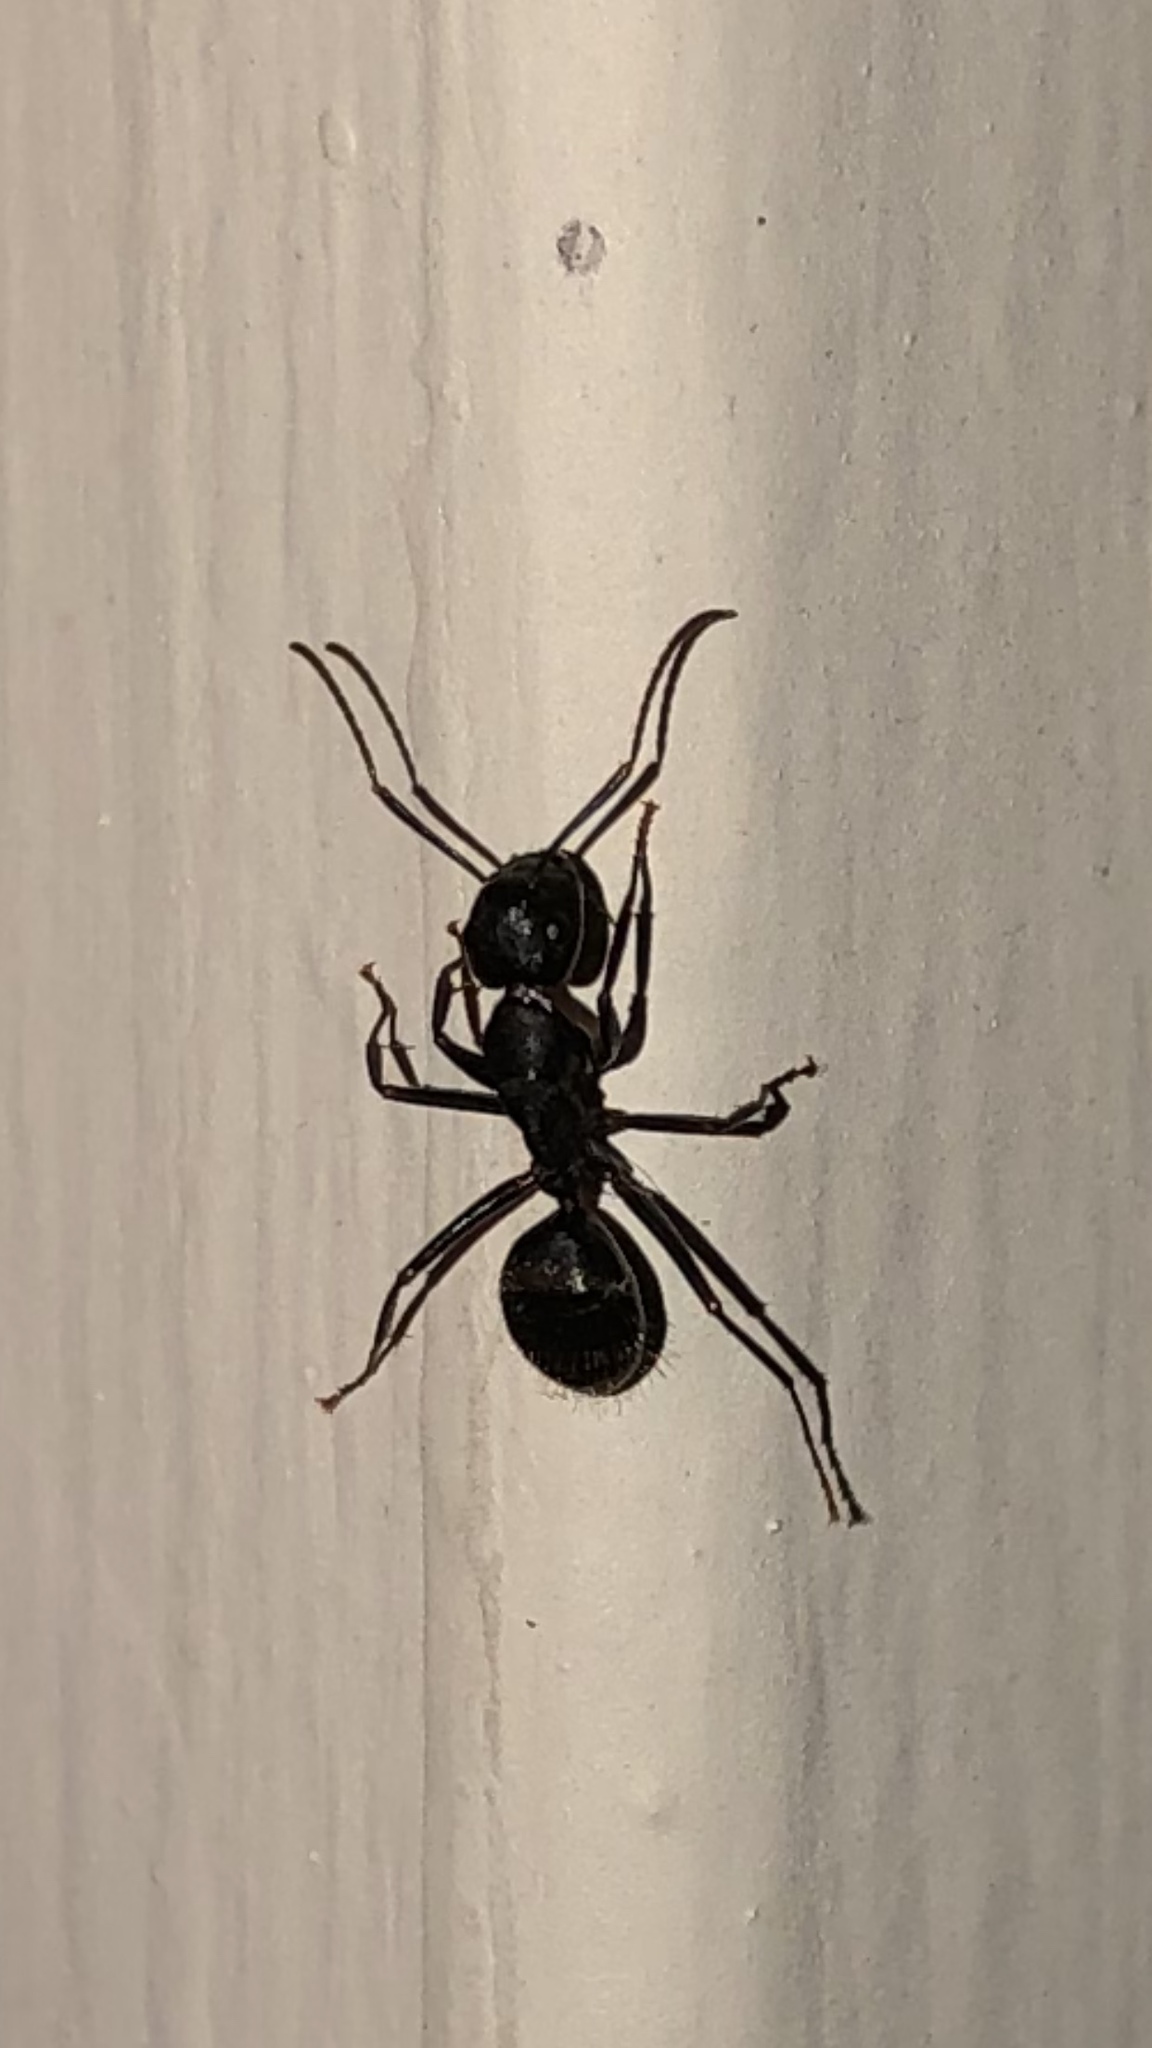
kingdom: Animalia
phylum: Arthropoda
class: Insecta
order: Hymenoptera
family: Formicidae
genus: Camponotus
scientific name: Camponotus pennsylvanicus
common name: Black carpenter ant
